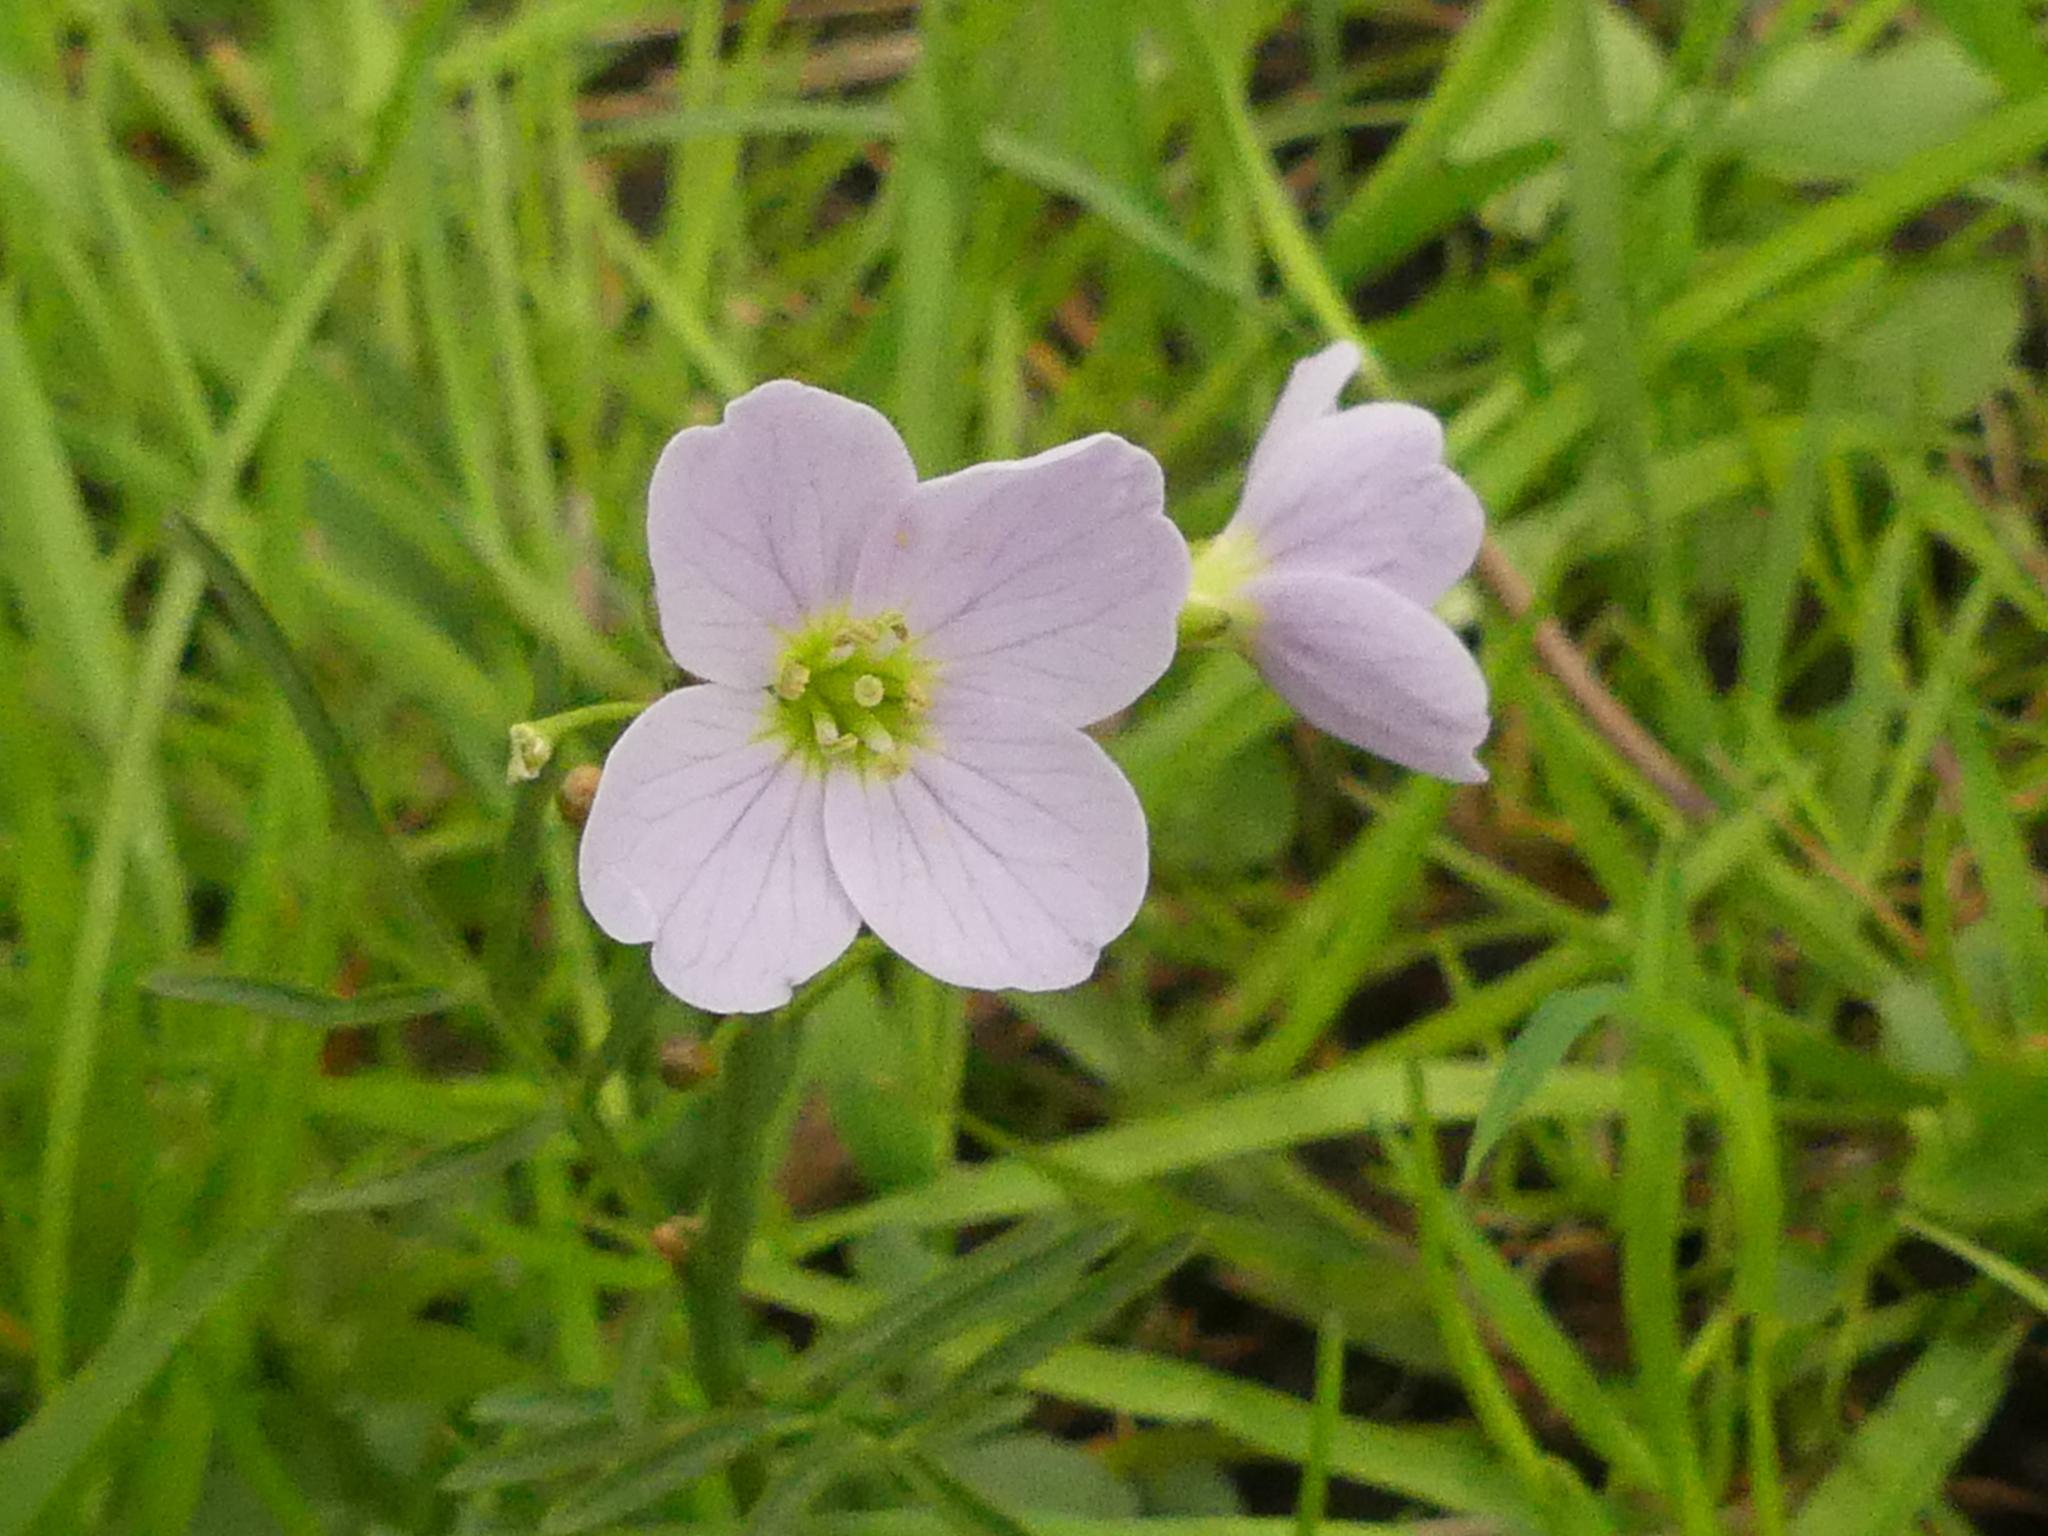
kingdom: Plantae
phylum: Tracheophyta
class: Magnoliopsida
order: Brassicales
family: Brassicaceae
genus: Cardamine
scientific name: Cardamine pratensis
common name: Cuckoo flower
